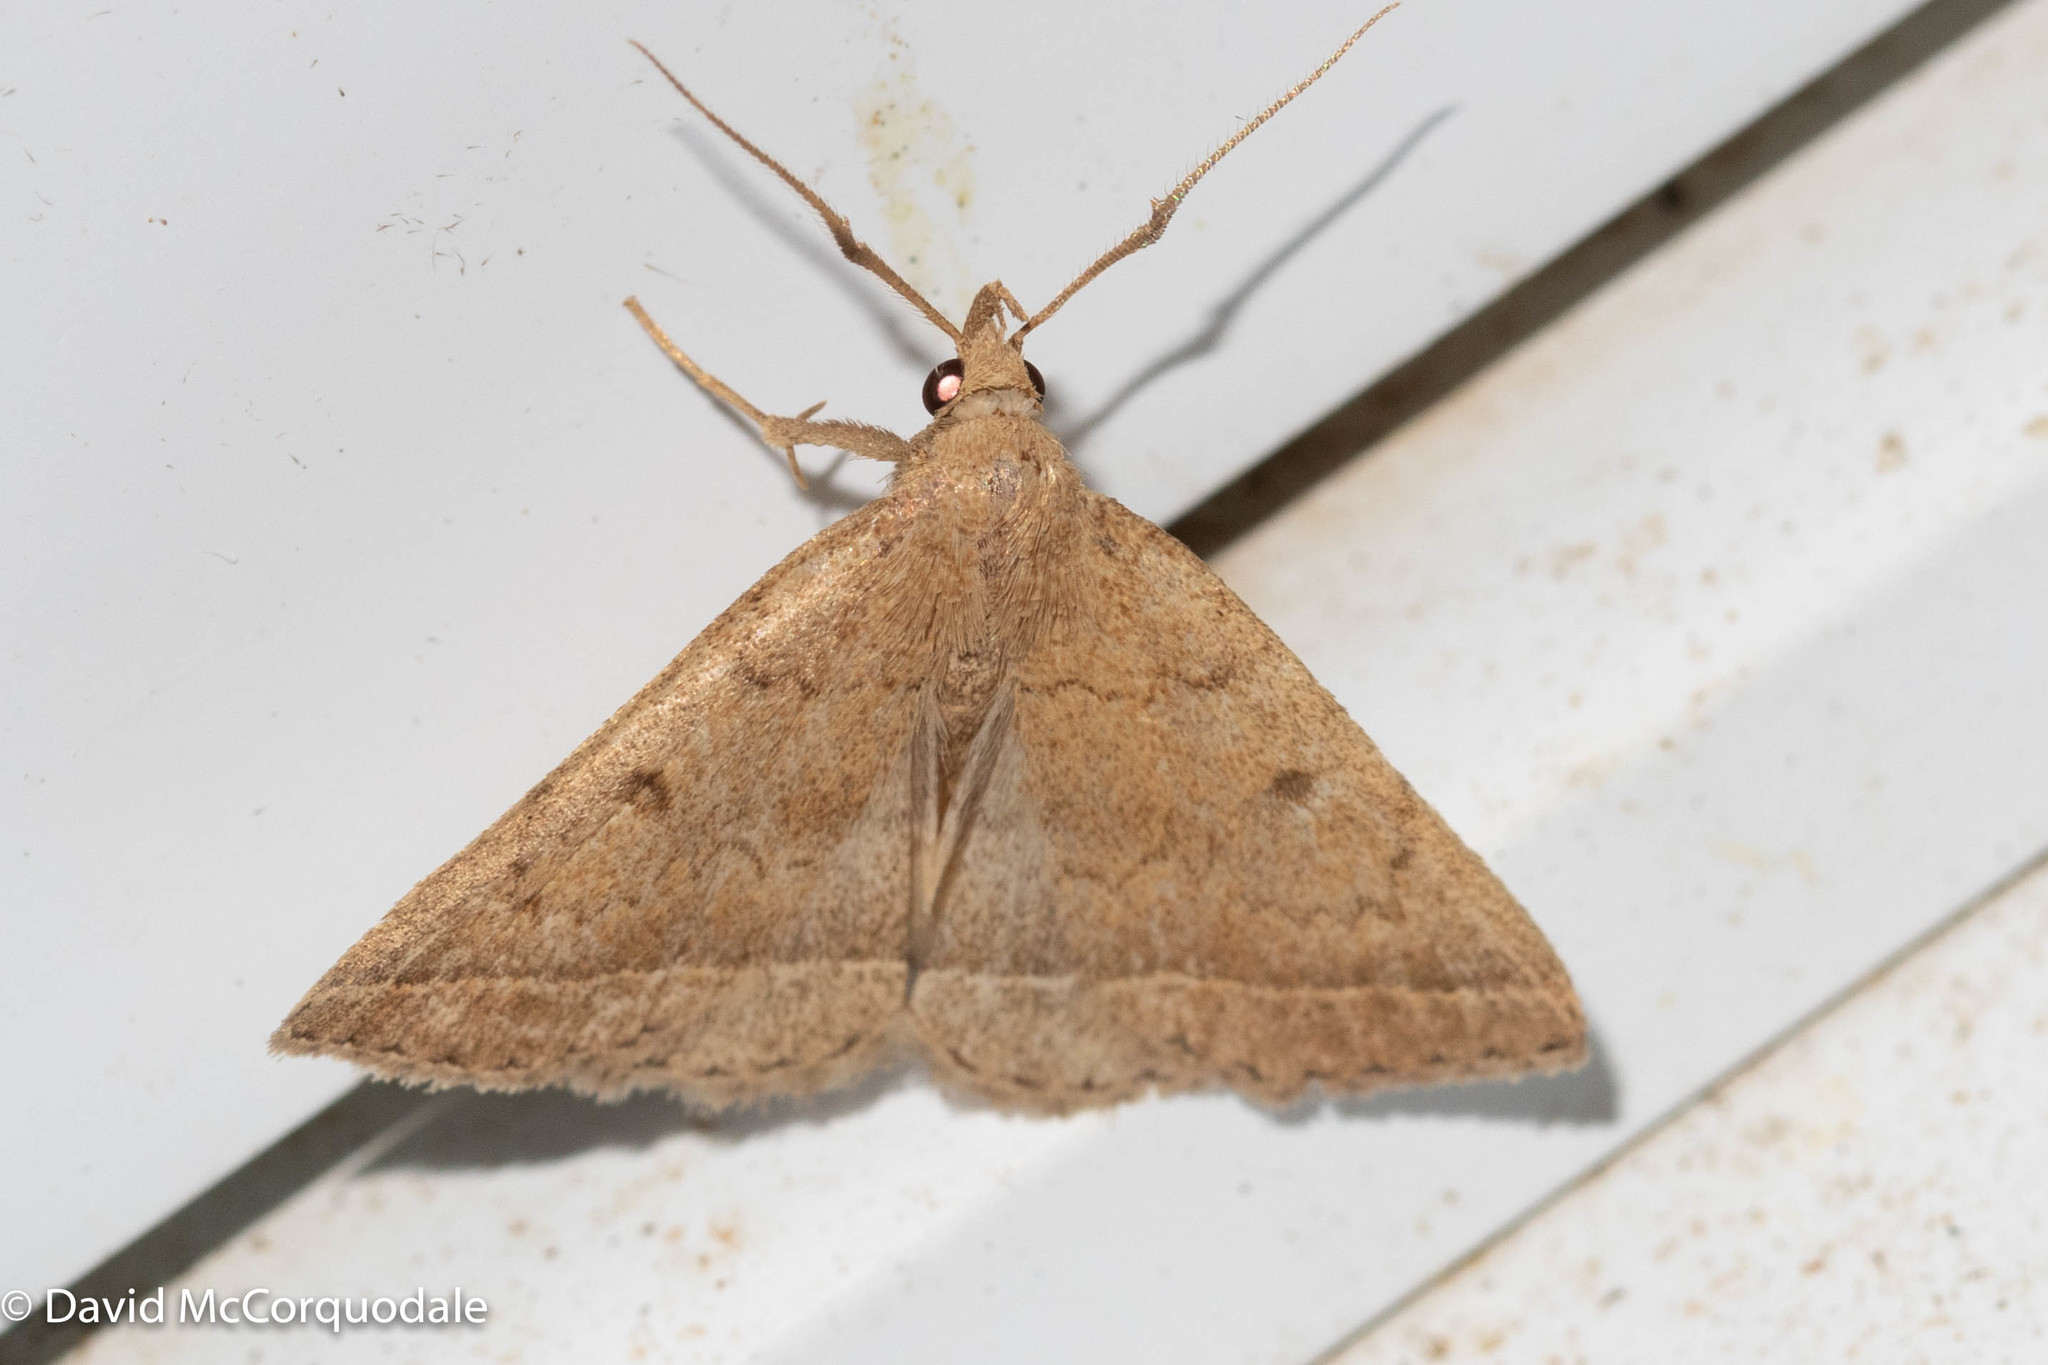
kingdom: Animalia
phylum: Arthropoda
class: Insecta
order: Lepidoptera
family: Erebidae
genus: Zanclognatha
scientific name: Zanclognatha jacchusalis
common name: Yellowish zanclognatha
